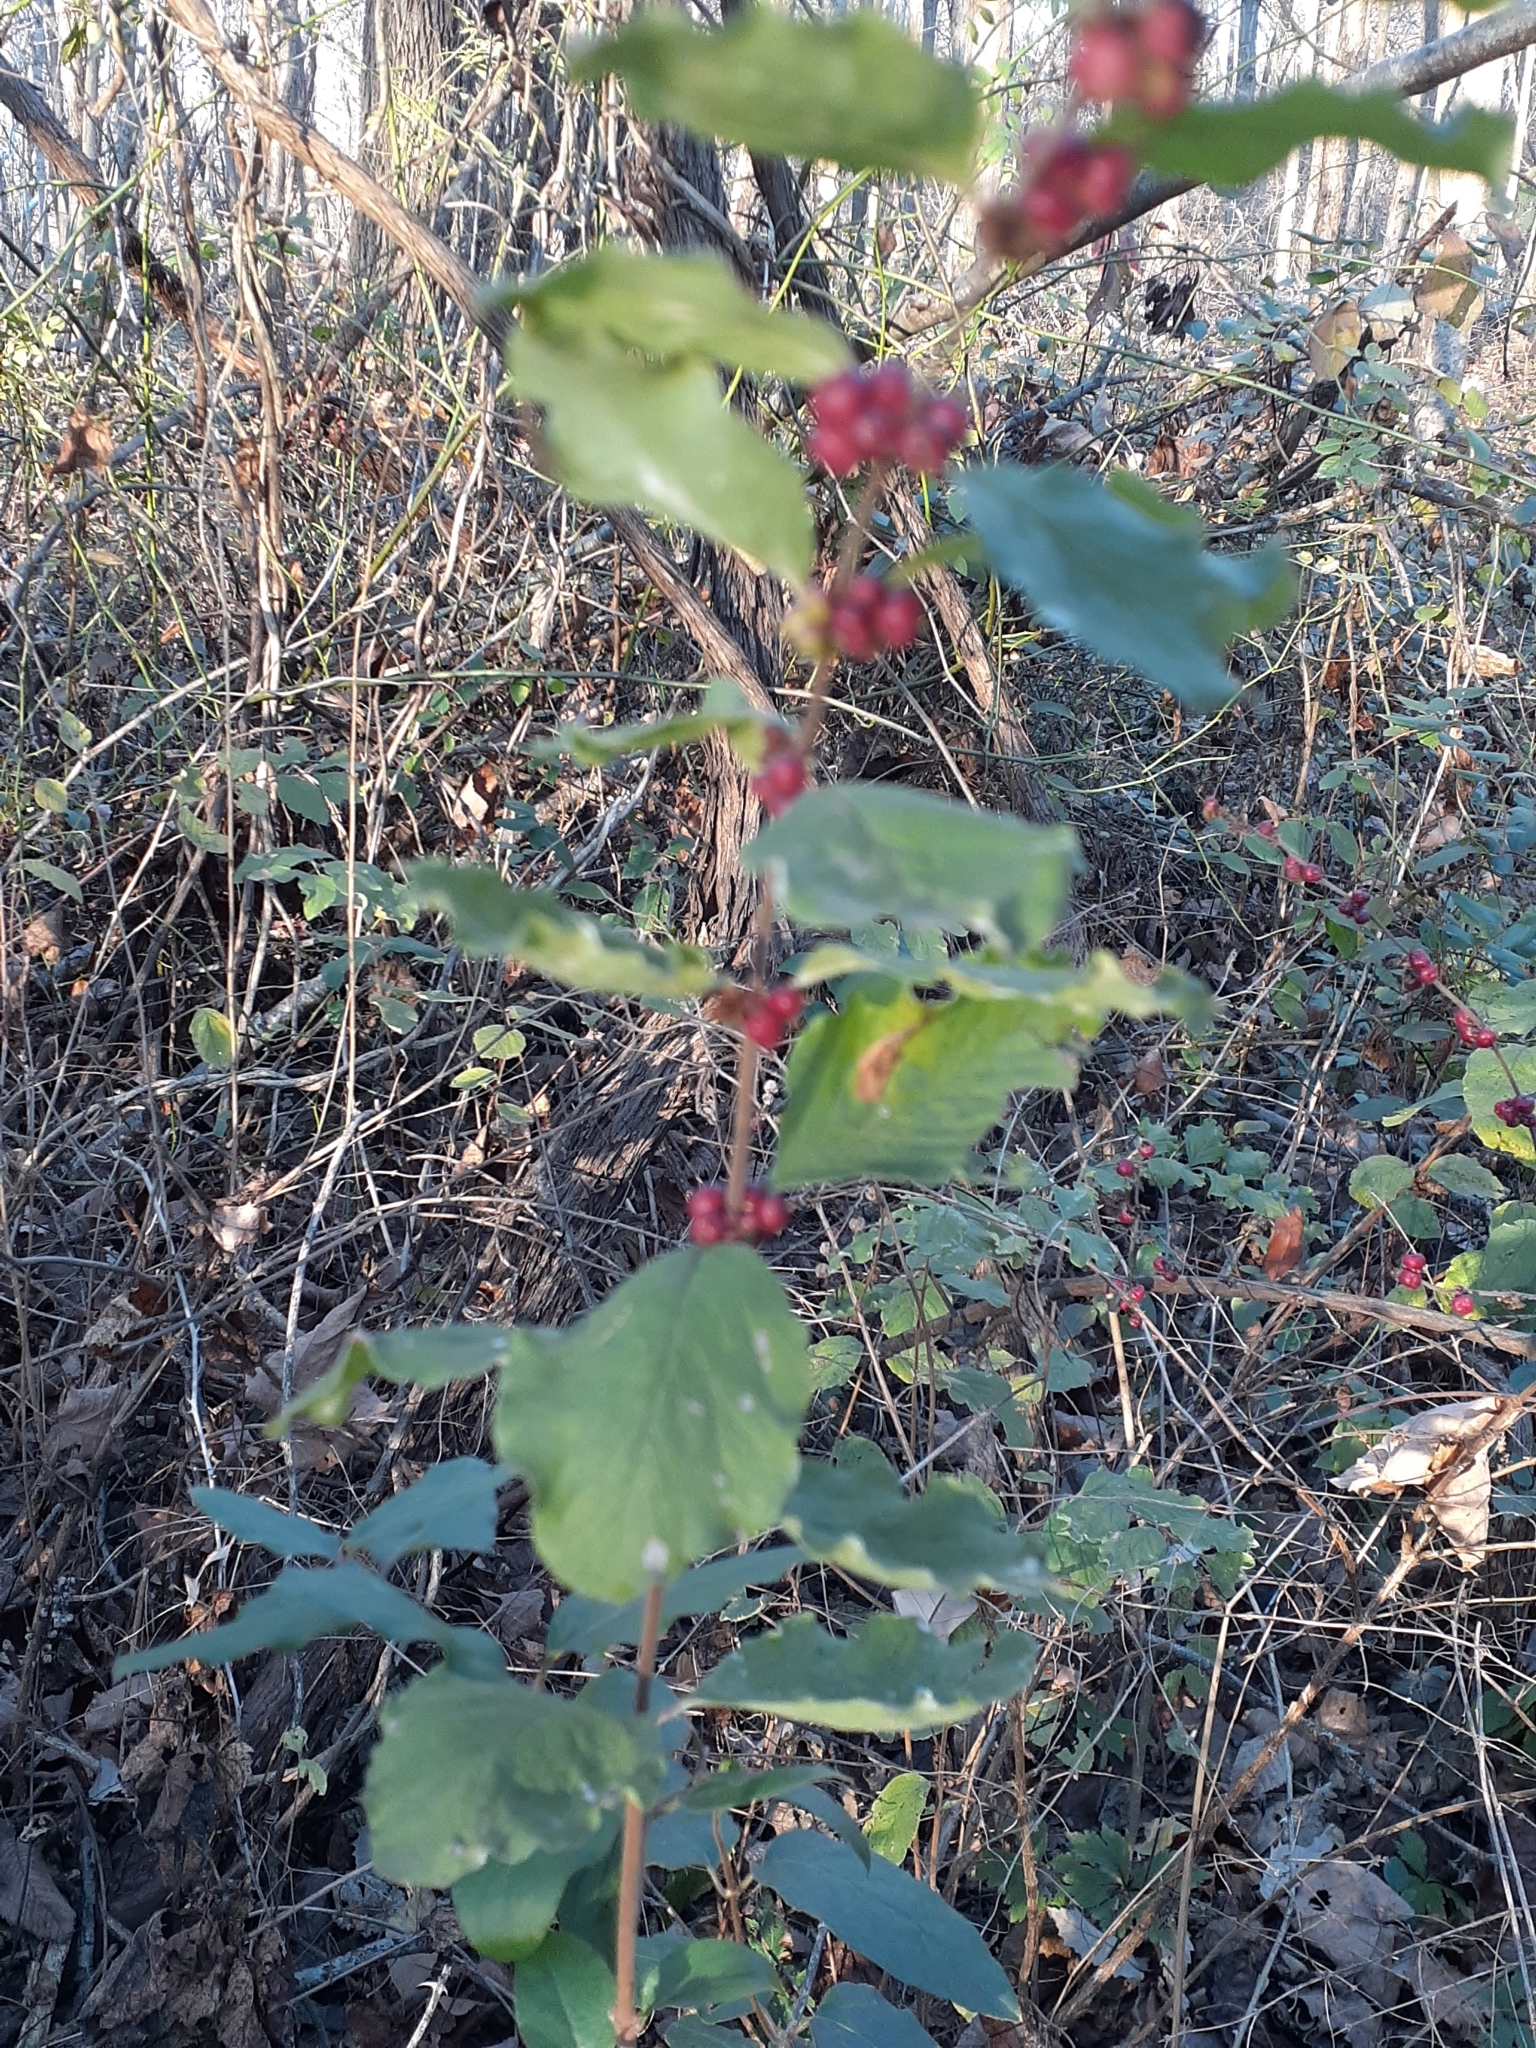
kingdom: Plantae
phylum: Tracheophyta
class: Magnoliopsida
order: Dipsacales
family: Caprifoliaceae
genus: Symphoricarpos
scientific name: Symphoricarpos orbiculatus
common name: Coralberry
